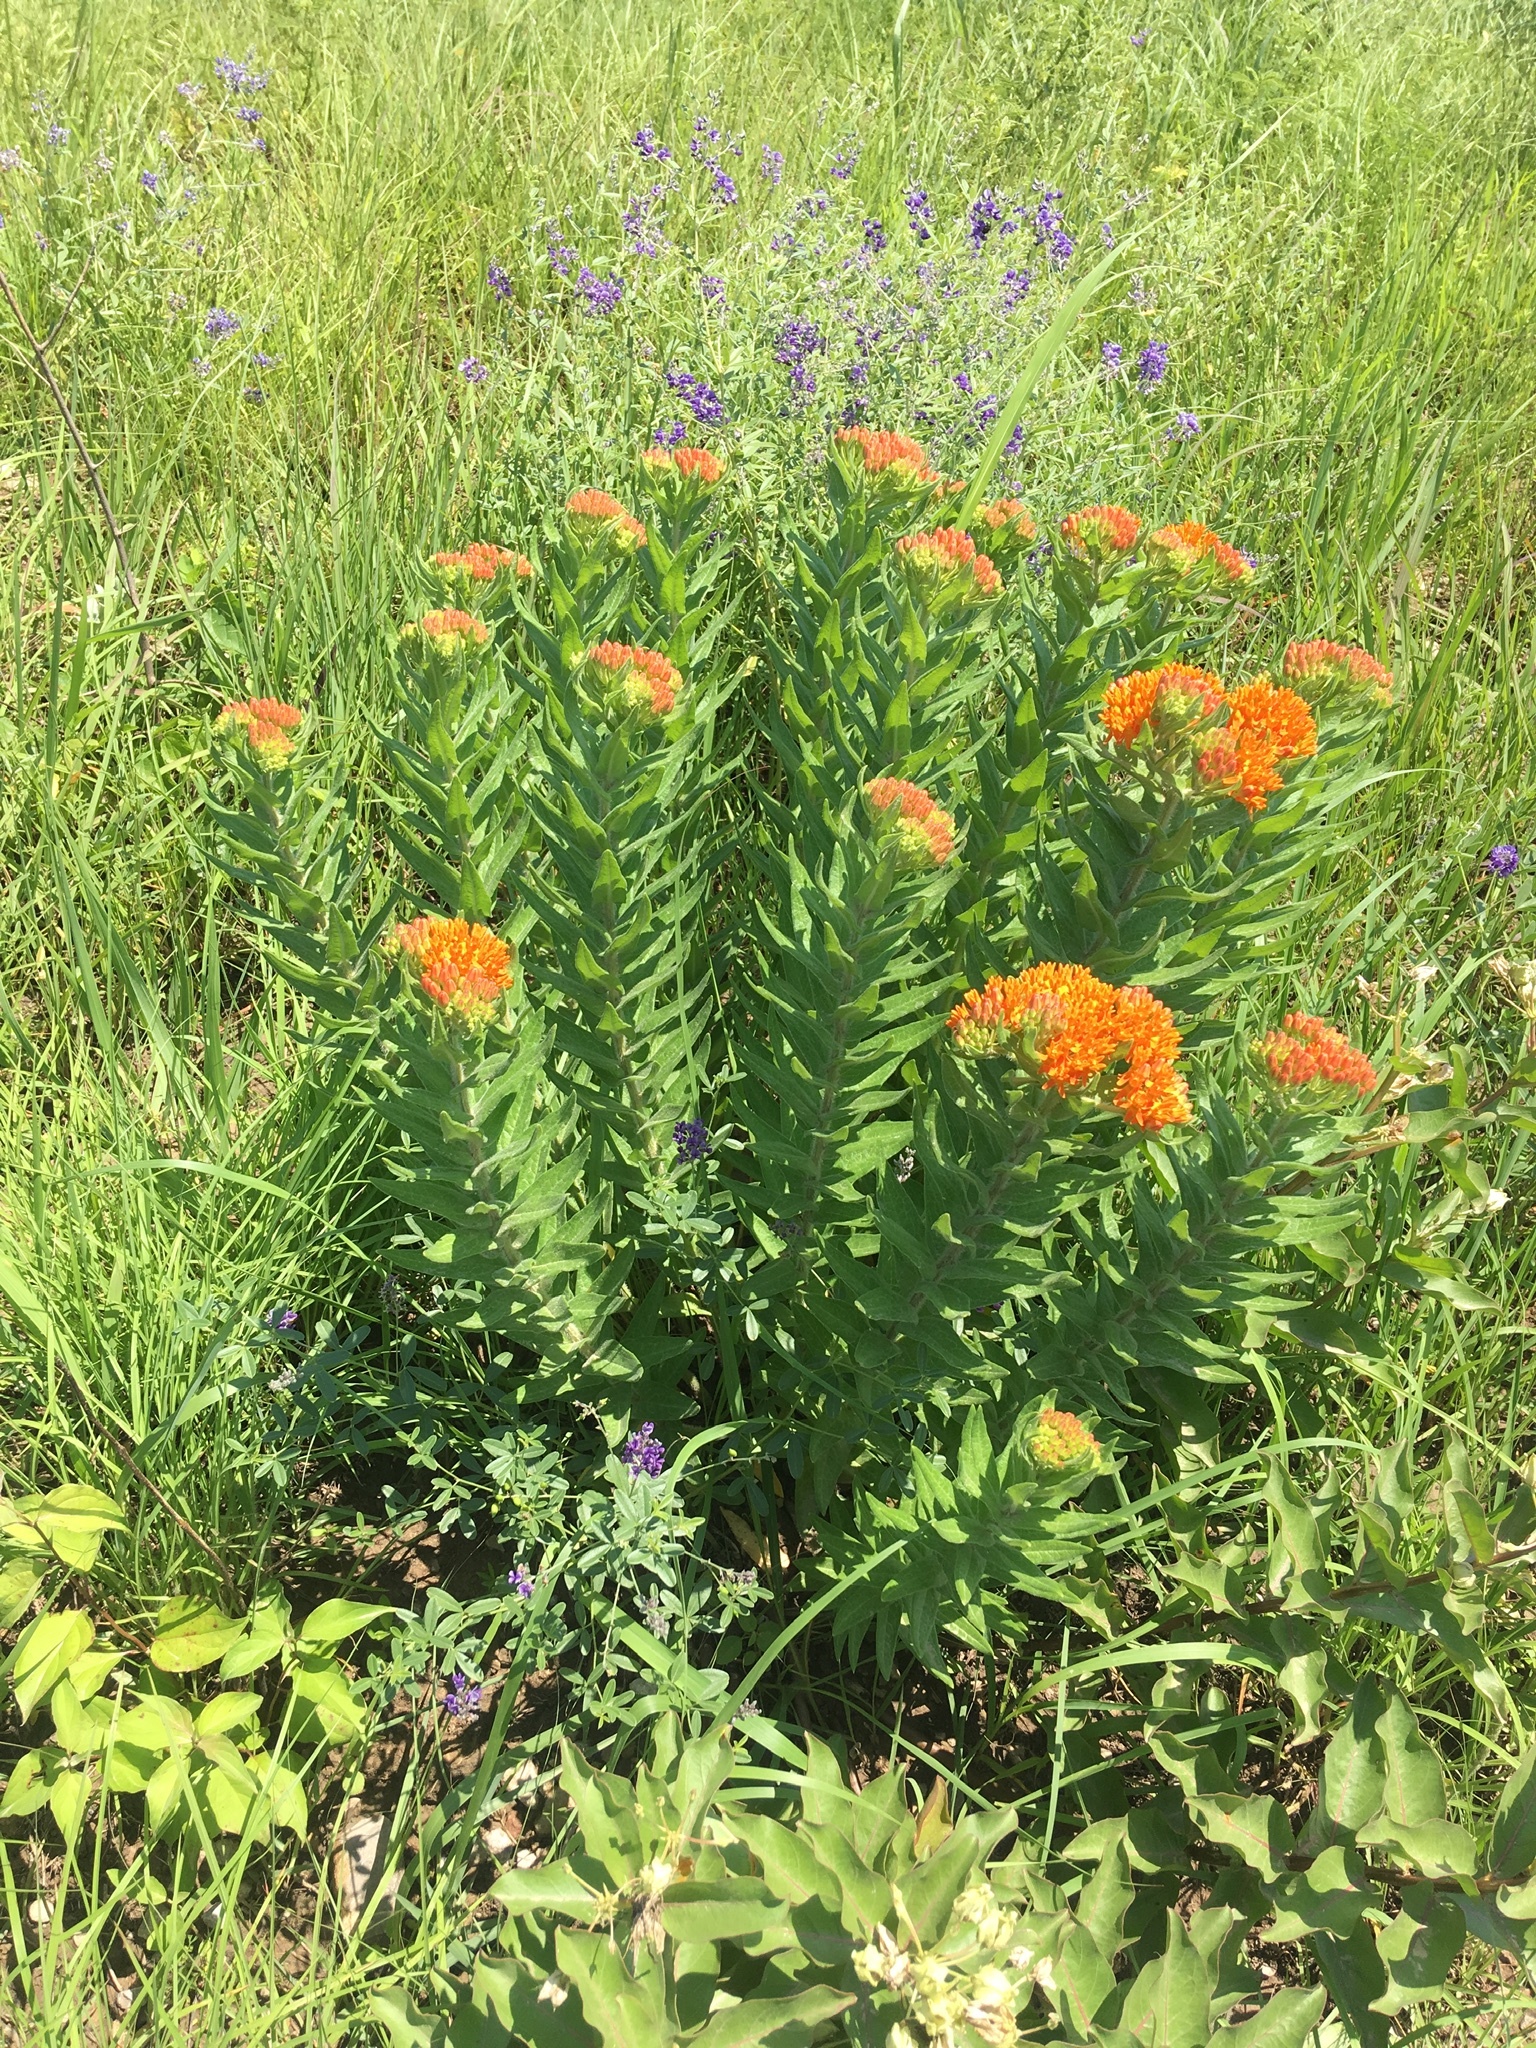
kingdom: Plantae
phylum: Tracheophyta
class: Magnoliopsida
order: Gentianales
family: Apocynaceae
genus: Asclepias
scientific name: Asclepias tuberosa
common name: Butterfly milkweed
